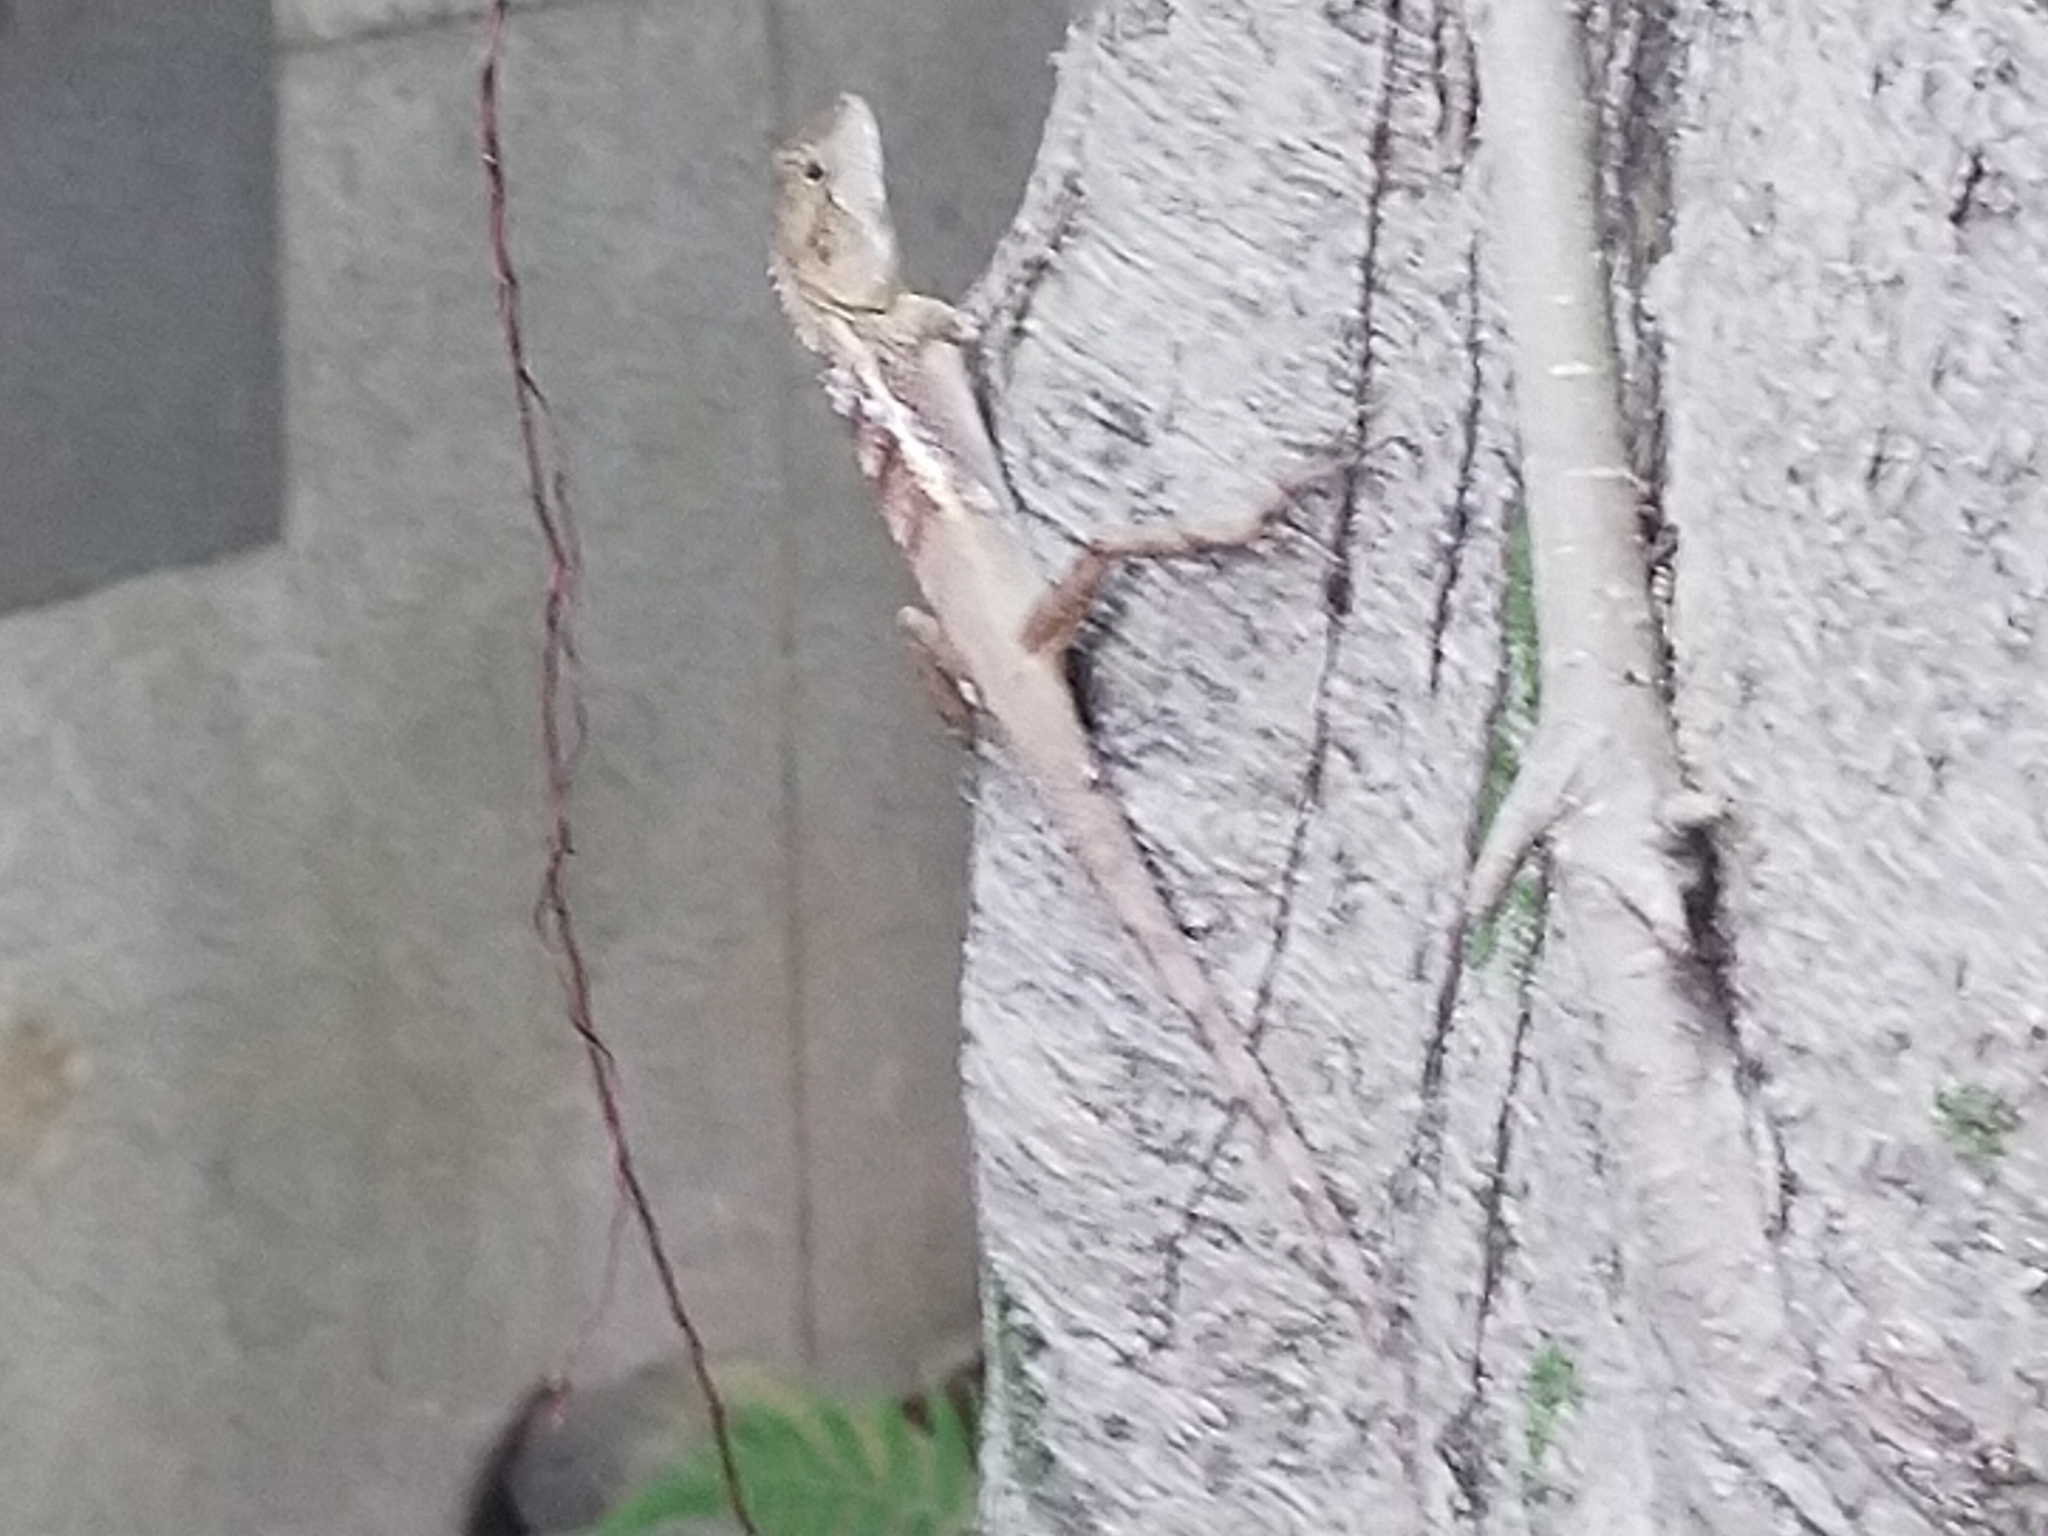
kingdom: Animalia
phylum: Chordata
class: Squamata
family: Agamidae
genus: Diploderma
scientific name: Diploderma swinhonis
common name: Taiwan japalure
